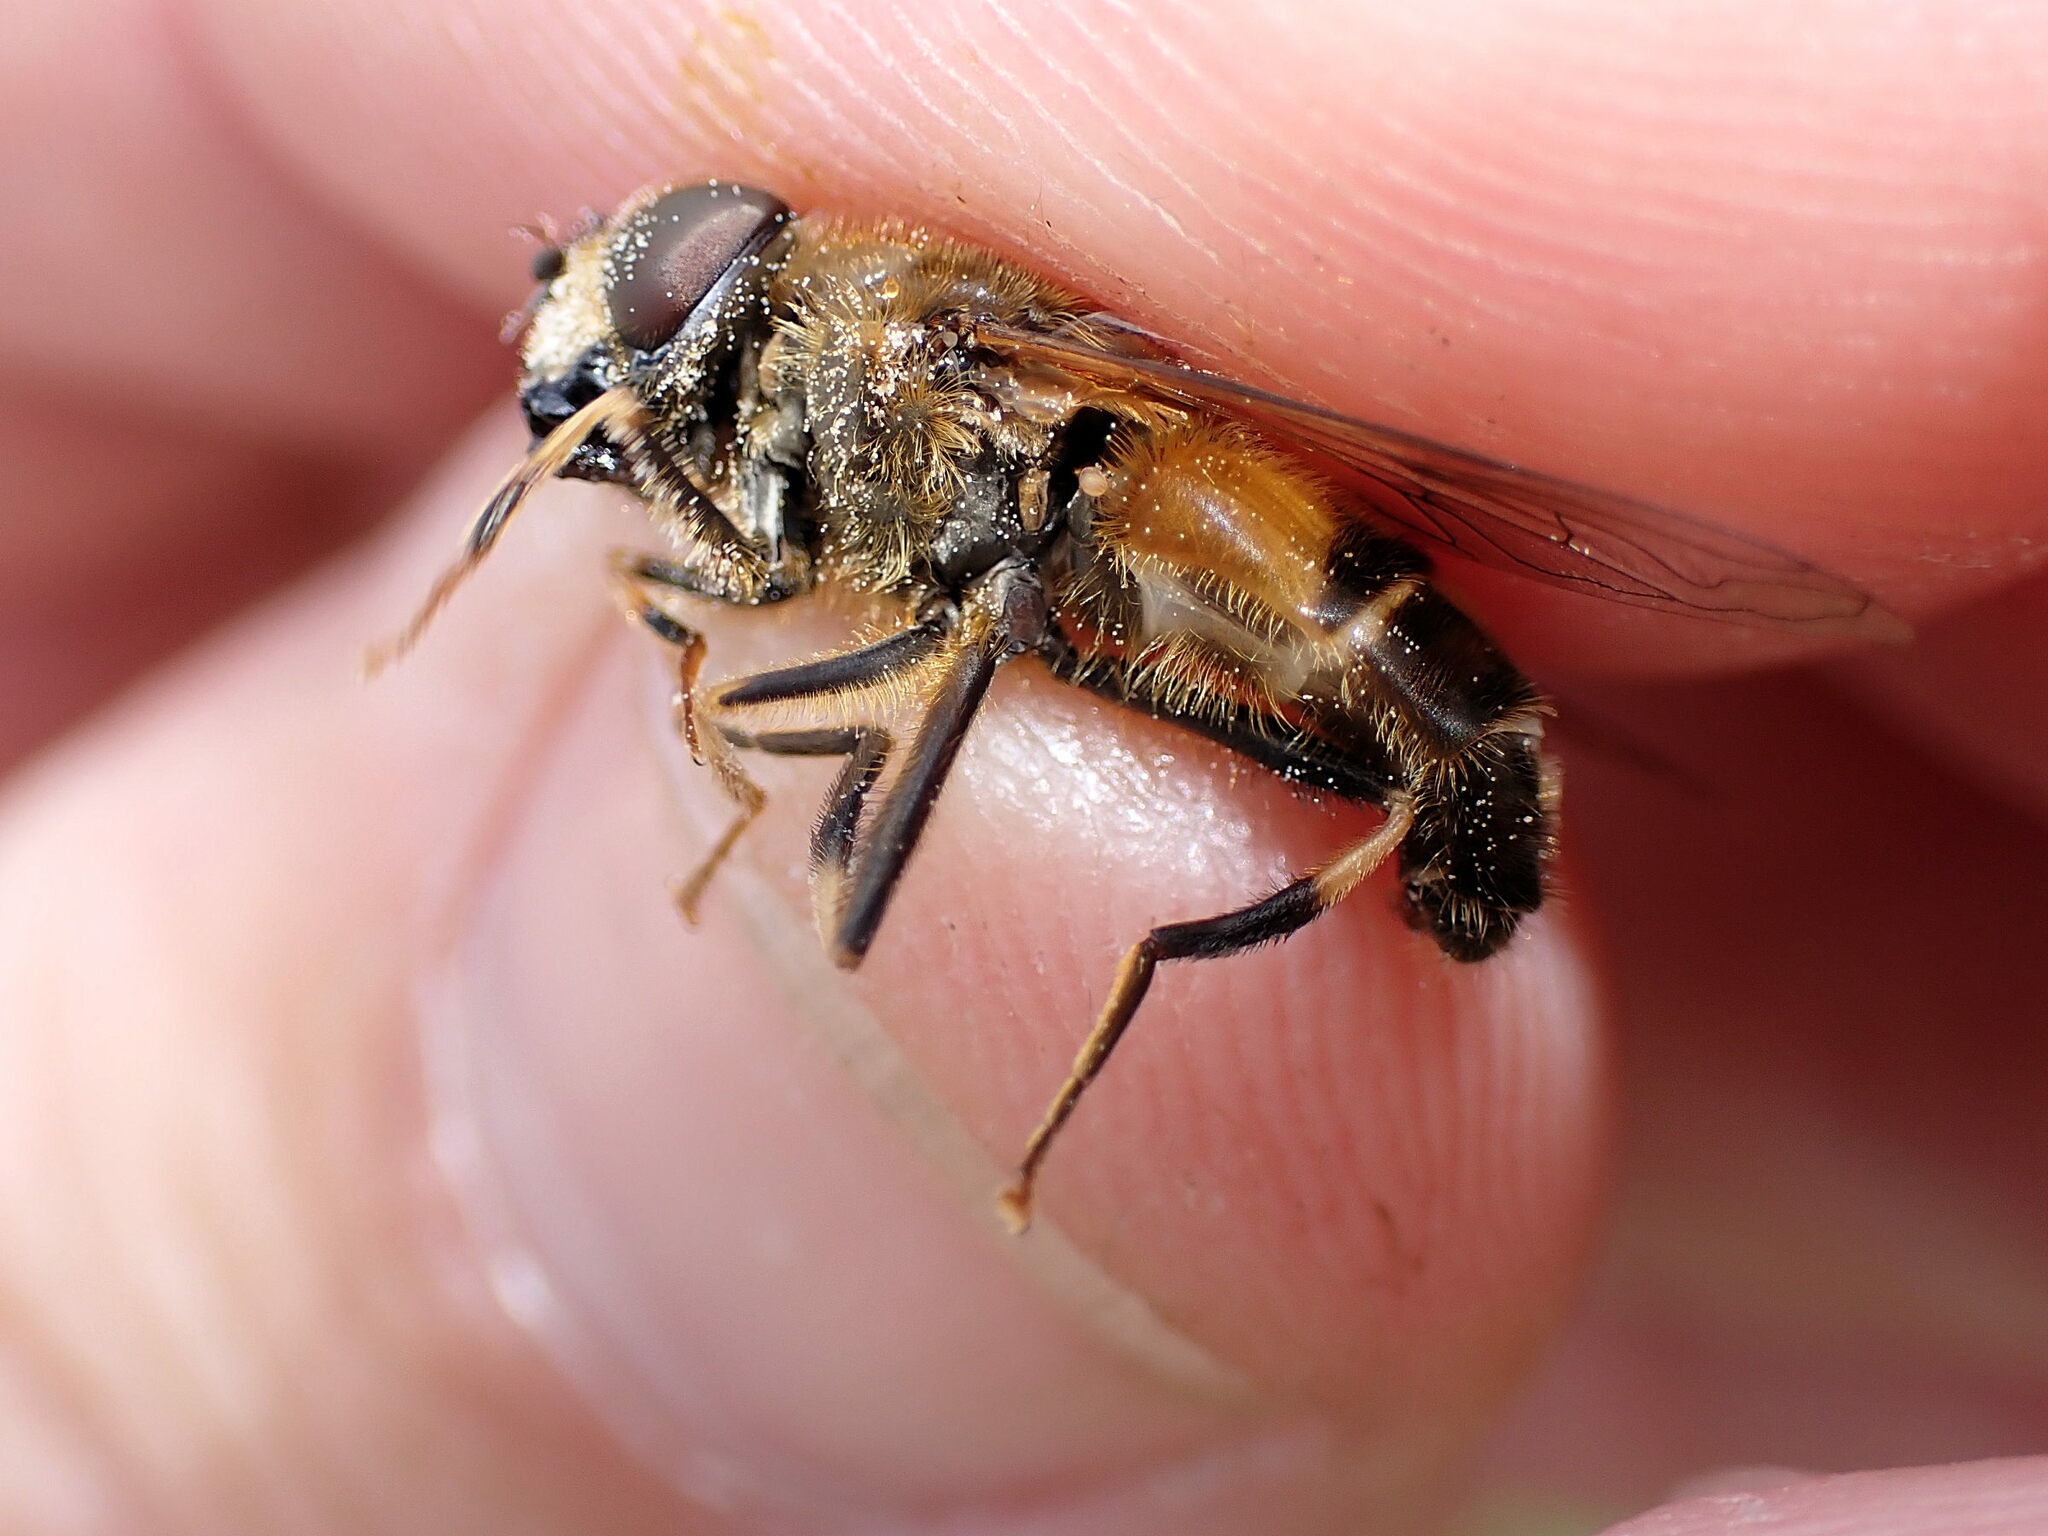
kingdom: Animalia
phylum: Arthropoda
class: Insecta
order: Diptera
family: Syrphidae
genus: Eristalis
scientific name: Eristalis pertinax
